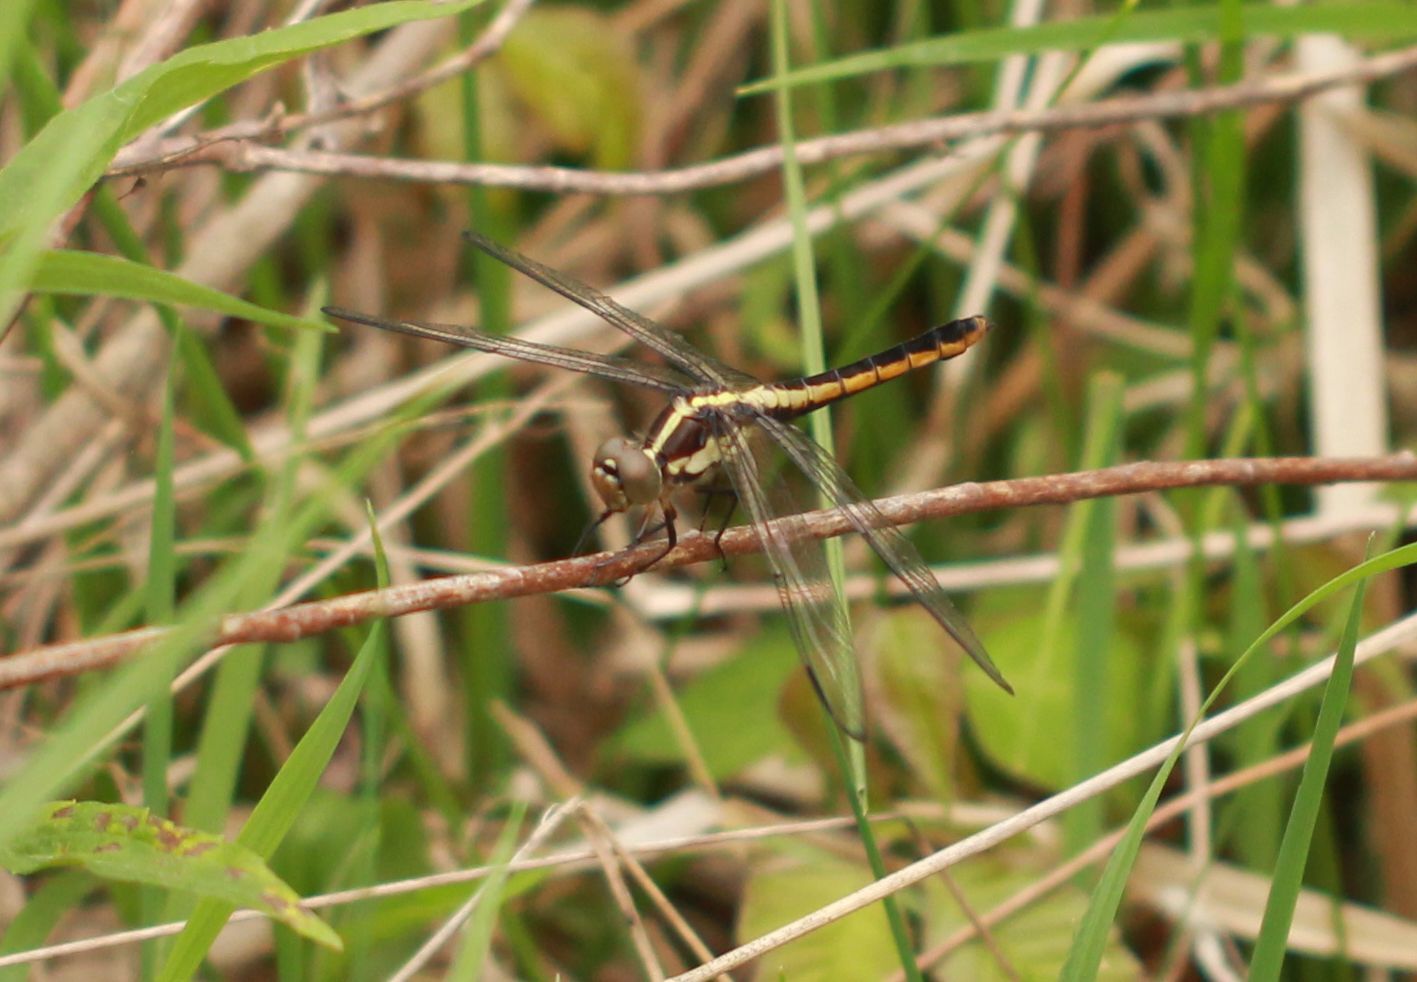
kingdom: Animalia
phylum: Arthropoda
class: Insecta
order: Odonata
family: Libellulidae
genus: Libellula
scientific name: Libellula incesta
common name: Slaty skimmer
